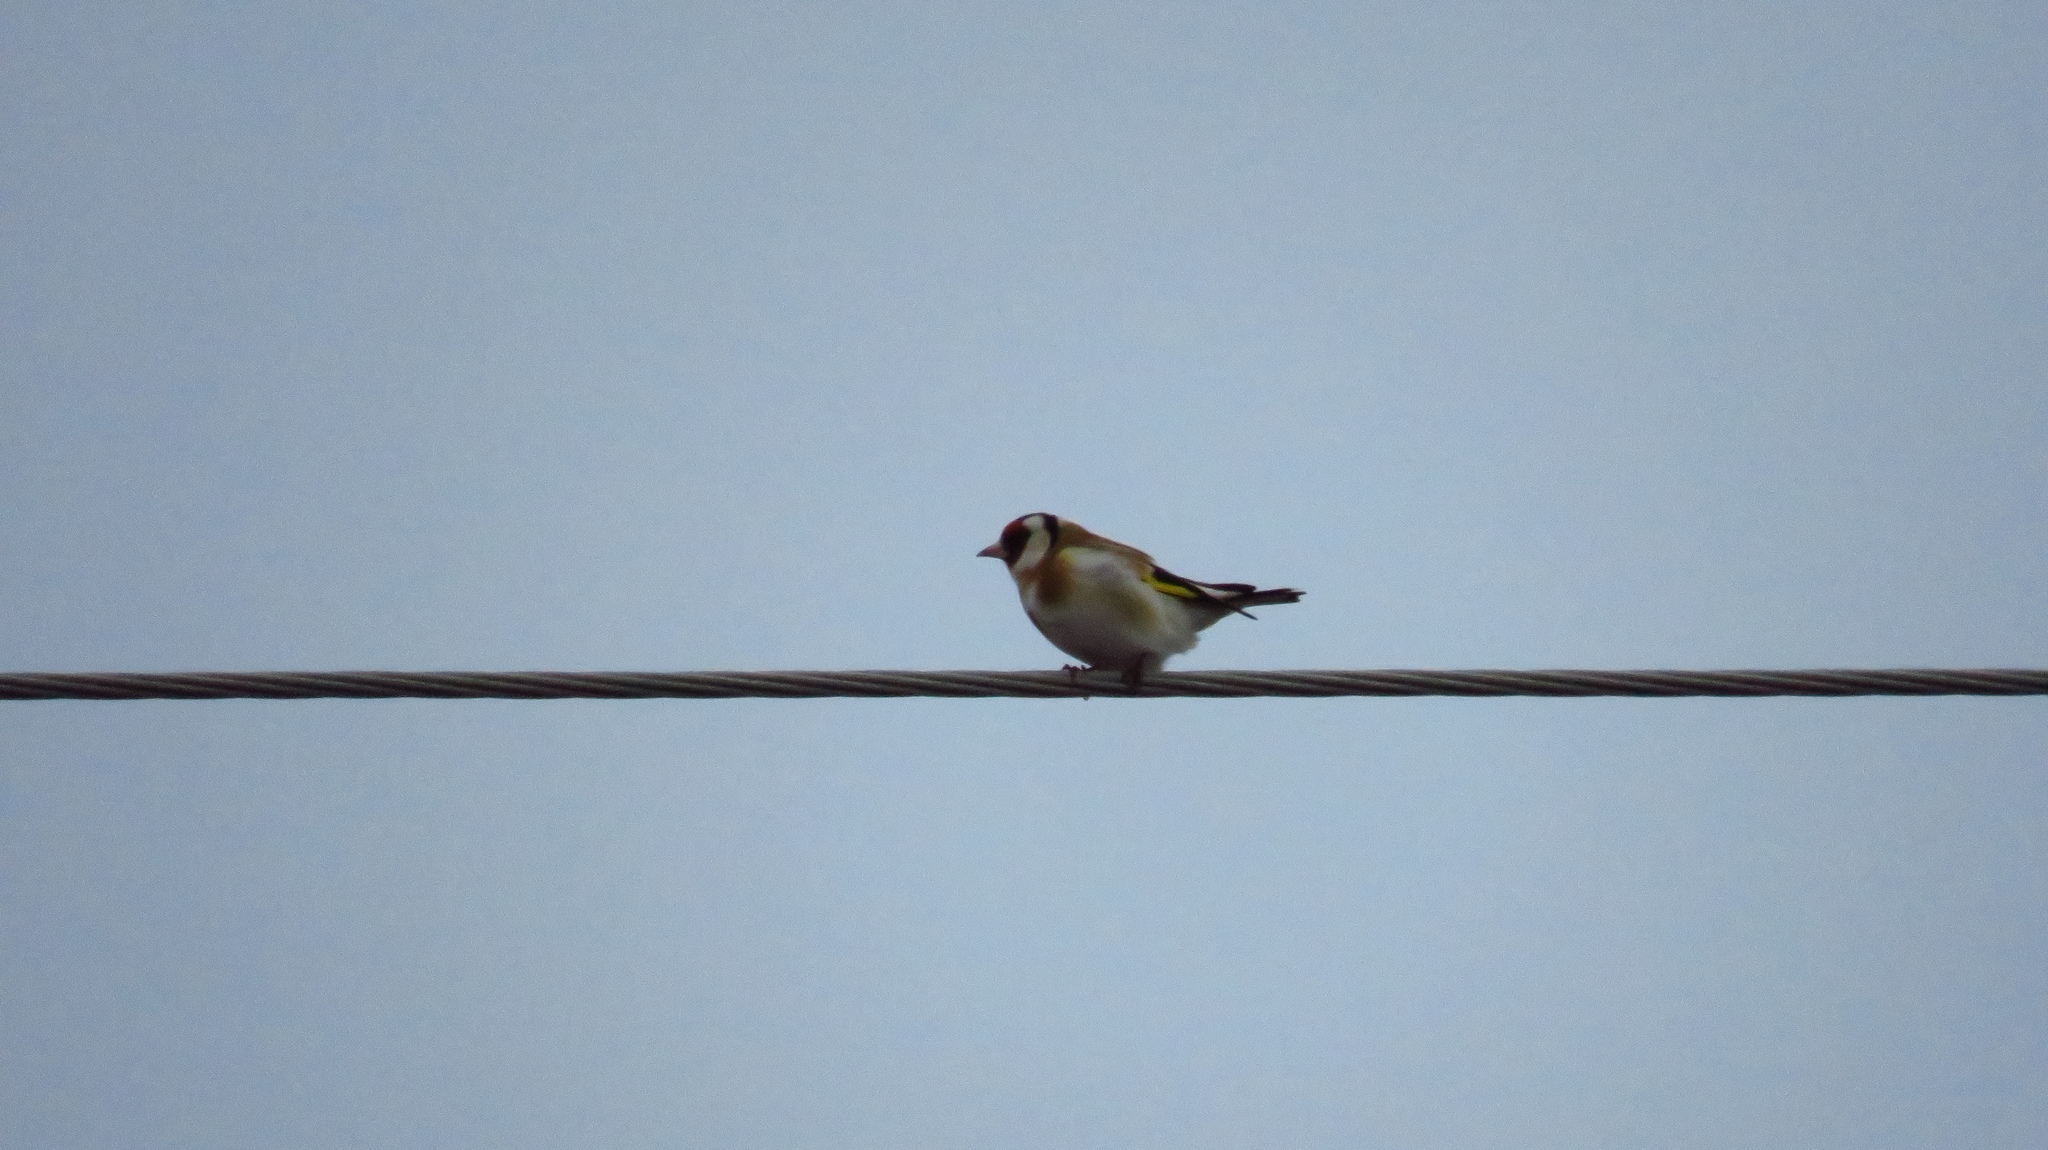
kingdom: Animalia
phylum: Chordata
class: Aves
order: Passeriformes
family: Fringillidae
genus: Carduelis
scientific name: Carduelis carduelis
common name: European goldfinch
